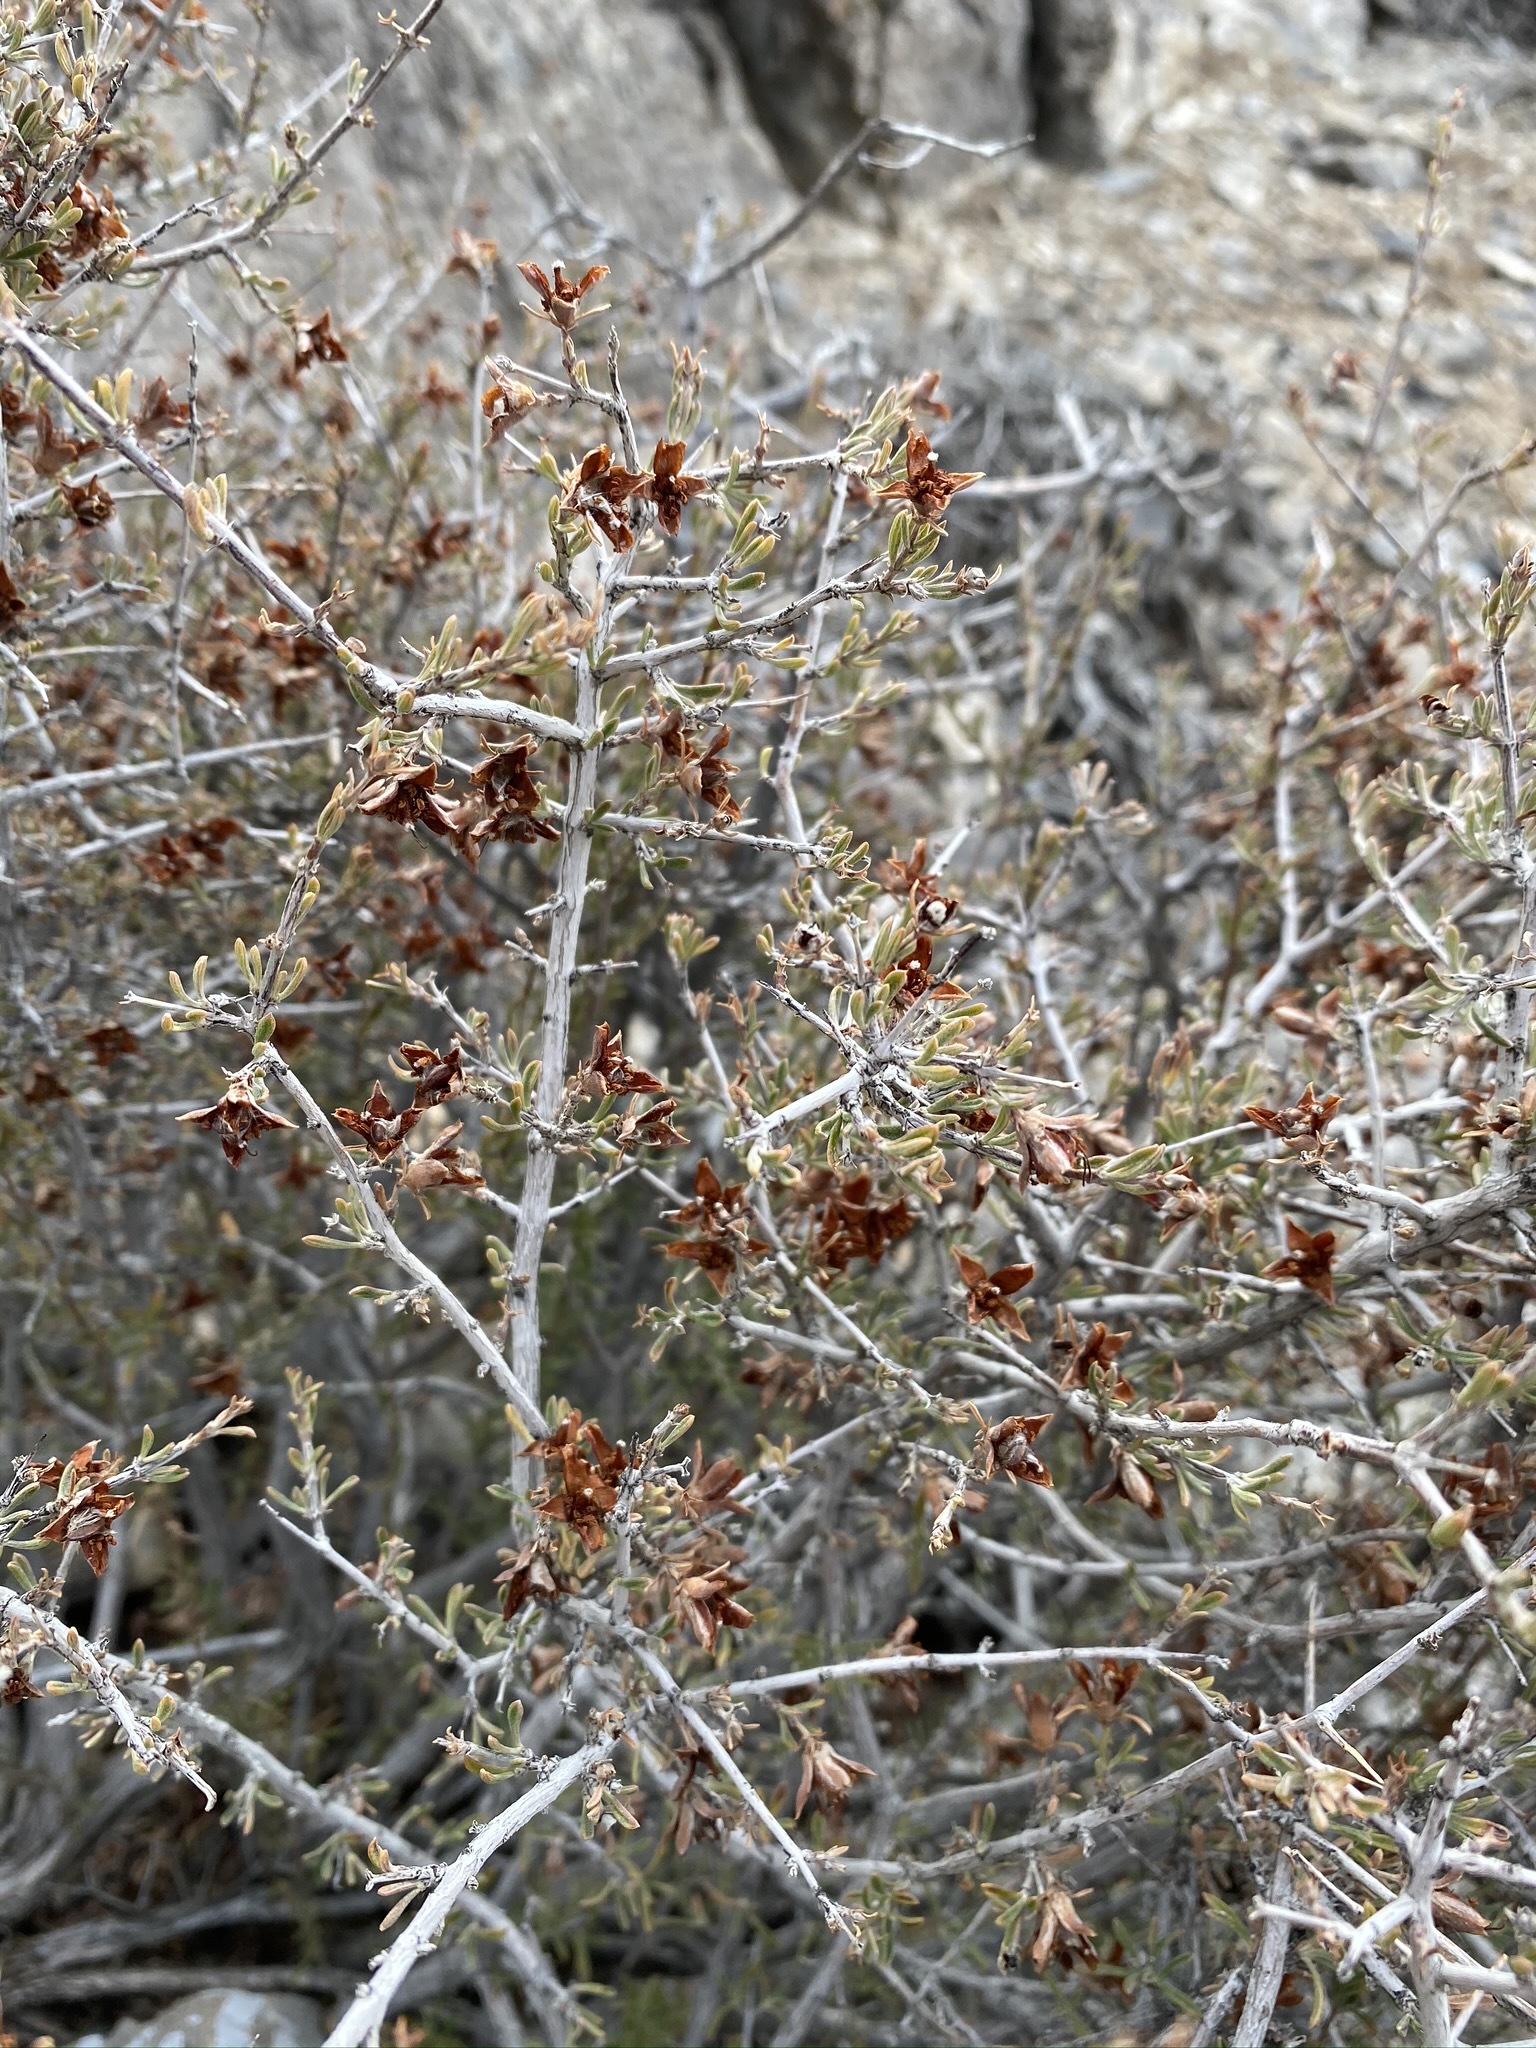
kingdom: Plantae
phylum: Tracheophyta
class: Magnoliopsida
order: Rosales
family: Rosaceae
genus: Coleogyne
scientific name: Coleogyne ramosissima
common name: Blackbrush
